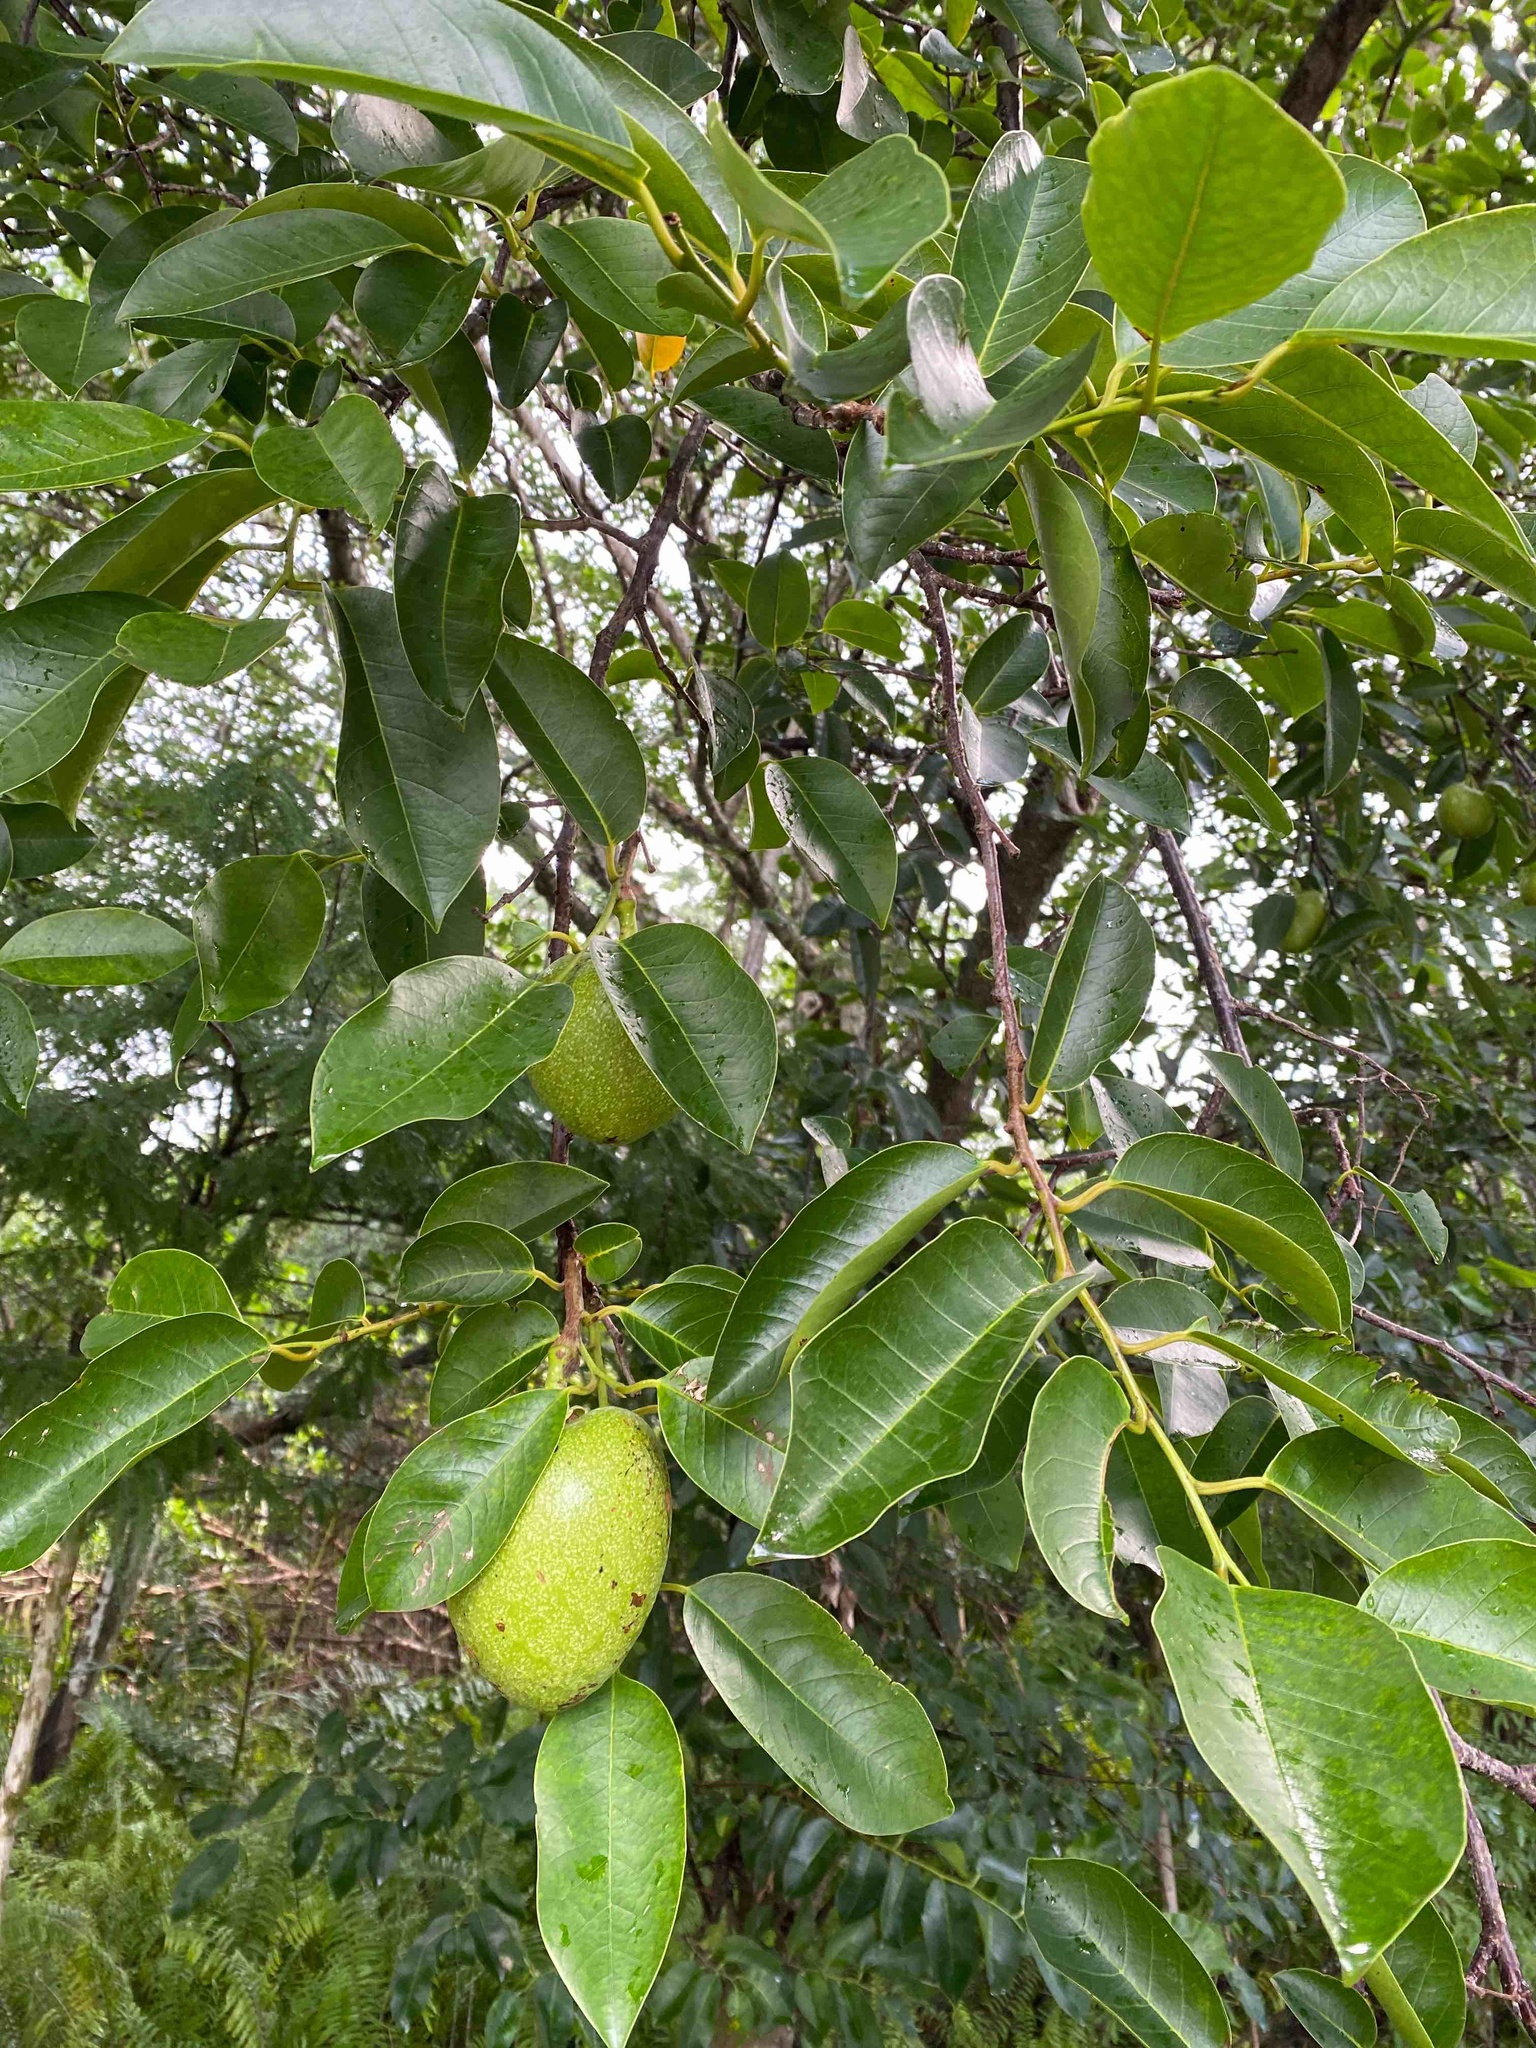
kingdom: Plantae
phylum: Tracheophyta
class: Magnoliopsida
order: Magnoliales
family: Annonaceae
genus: Annona
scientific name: Annona glabra
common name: Monkey apple
